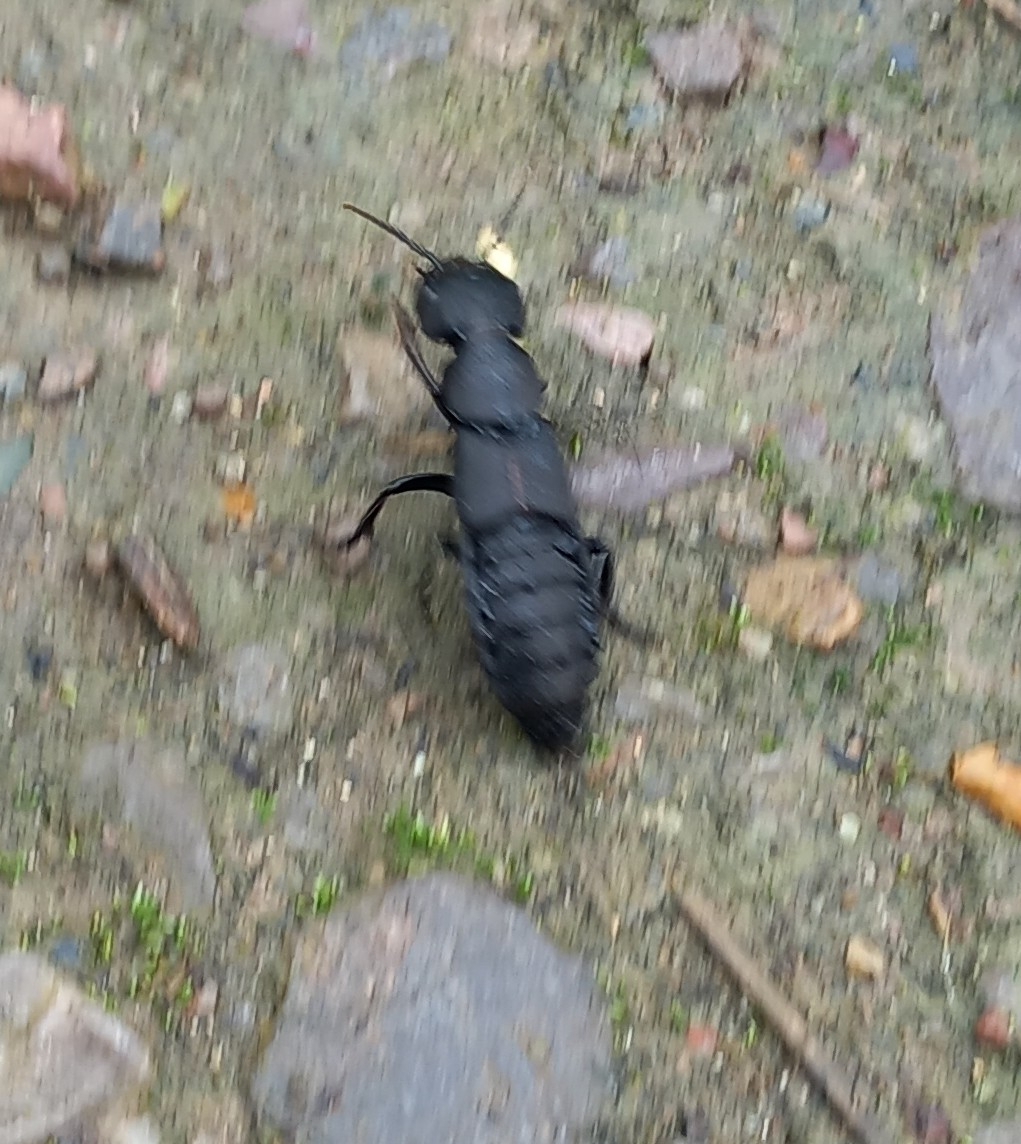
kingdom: Animalia
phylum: Arthropoda
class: Insecta
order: Coleoptera
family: Staphylinidae
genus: Ocypus
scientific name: Ocypus olens
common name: Devil's coach-horse
